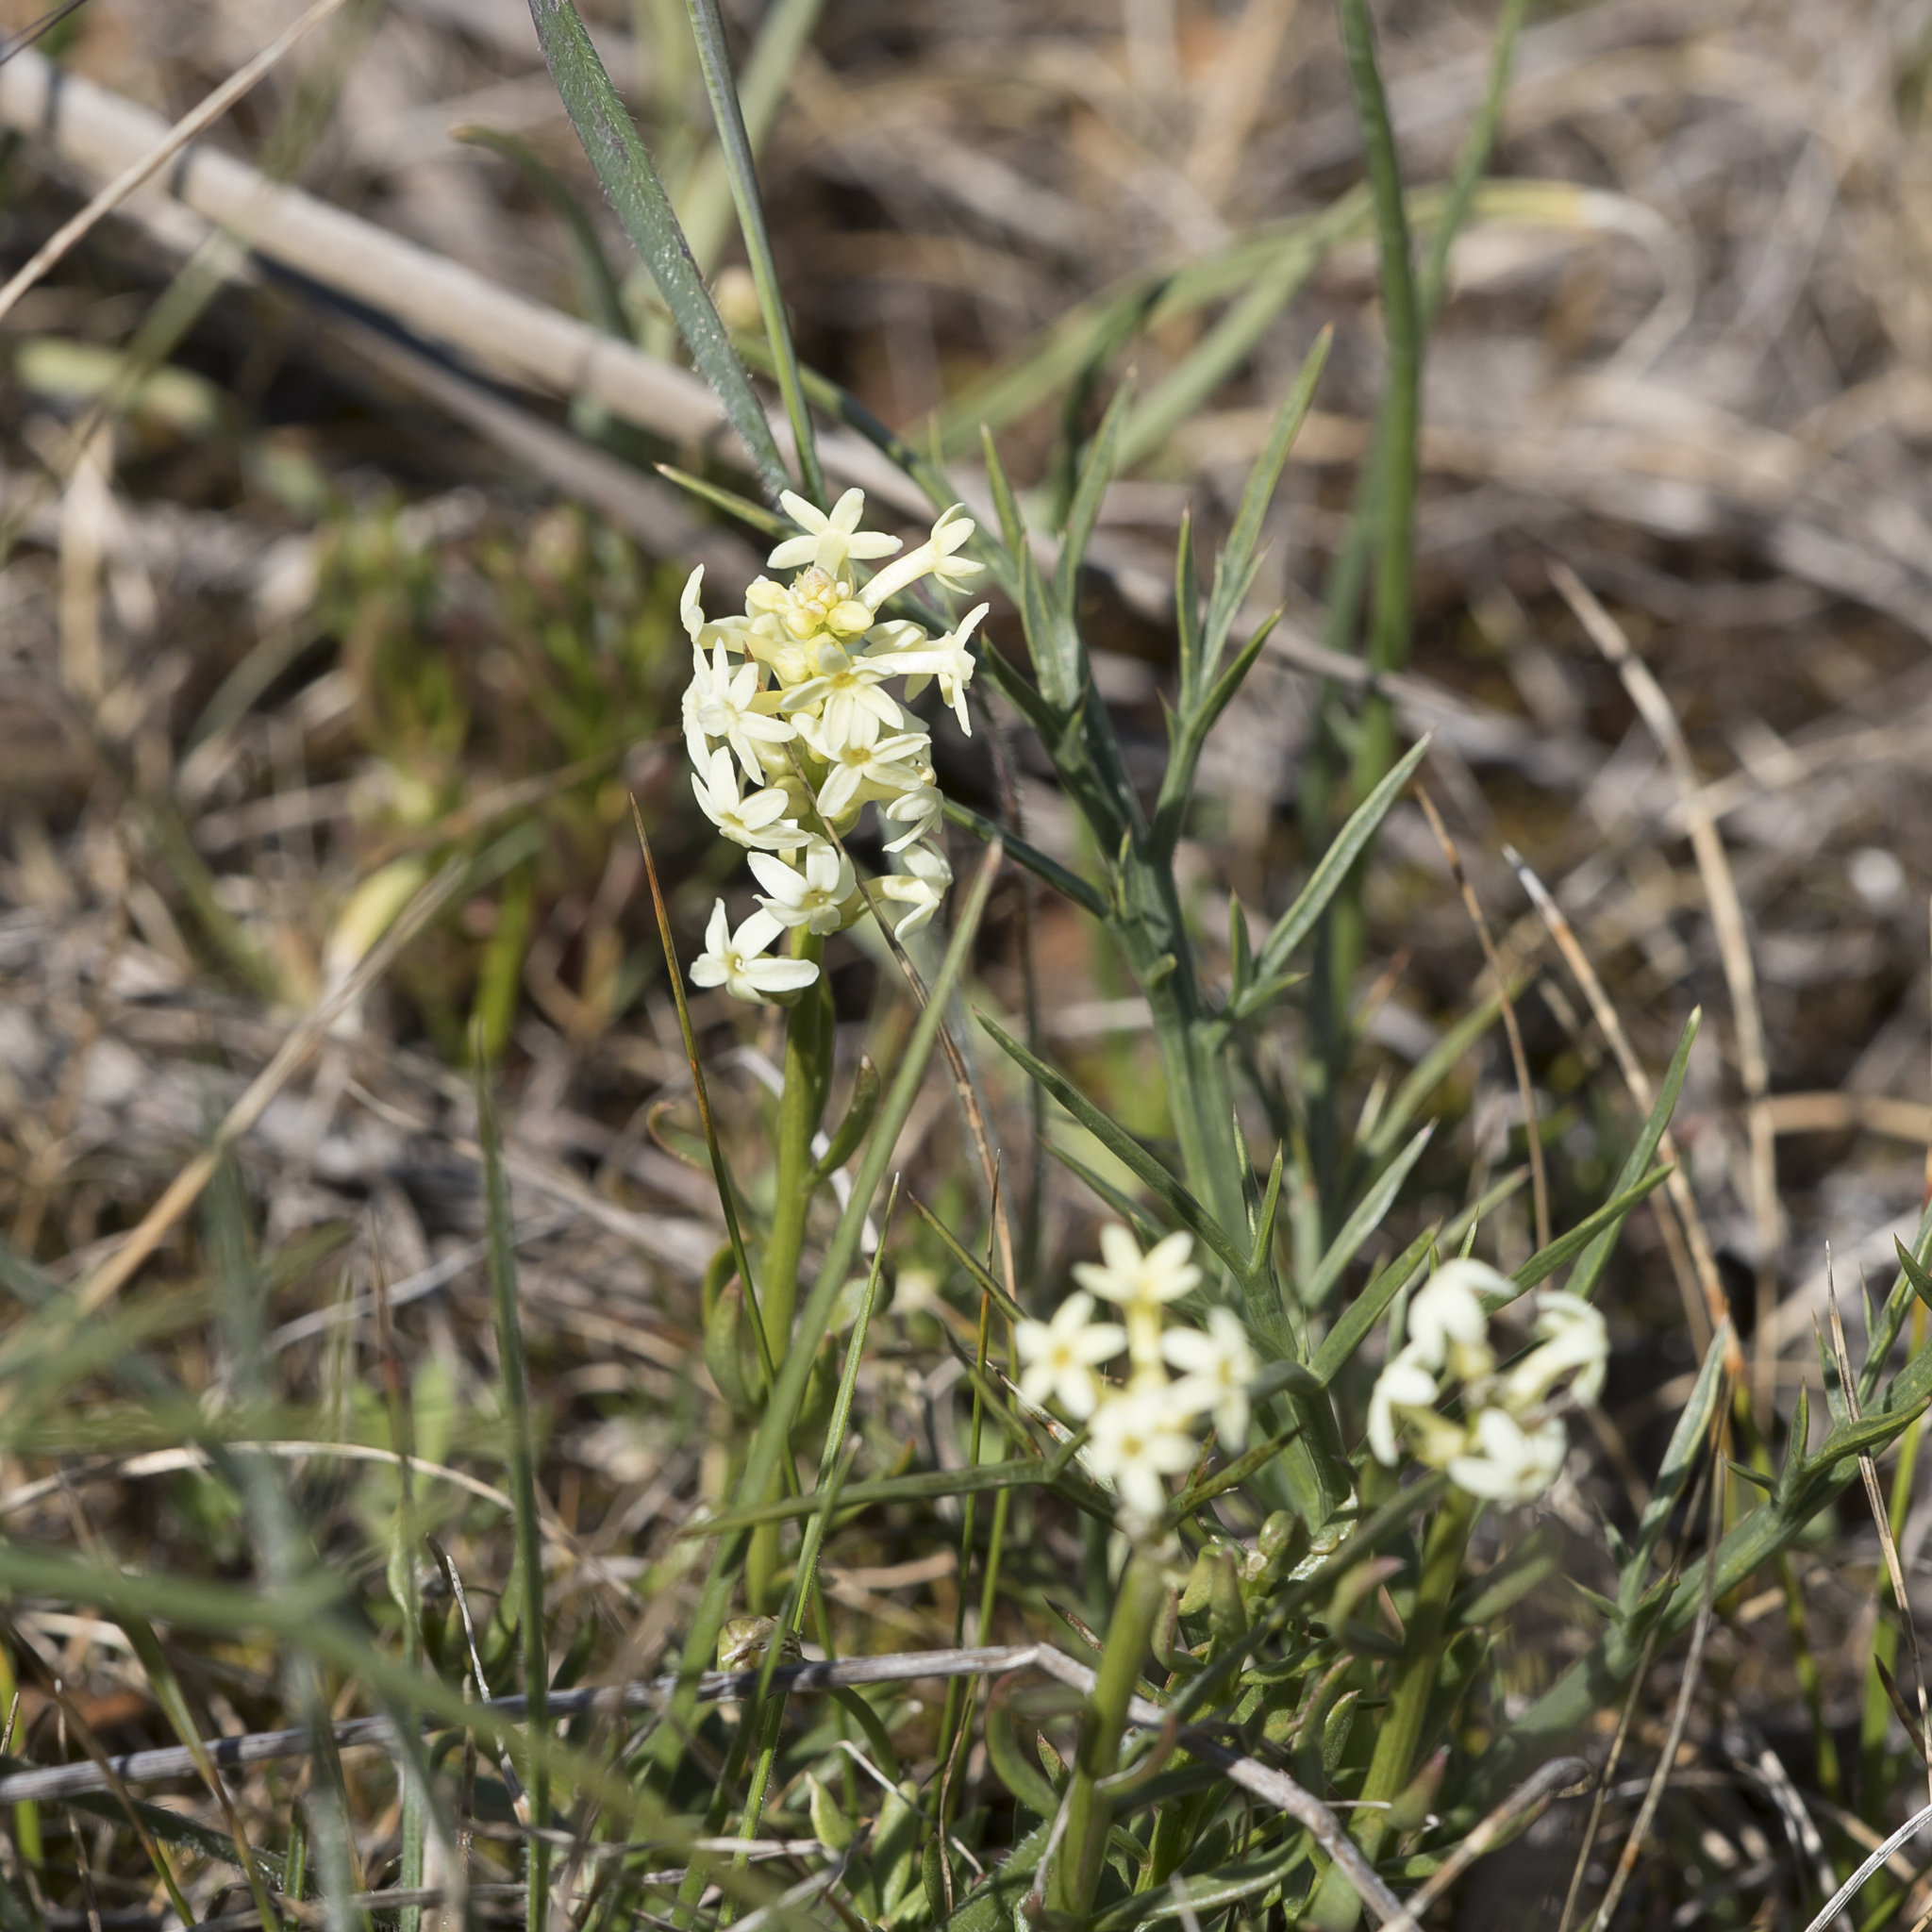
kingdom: Plantae
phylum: Tracheophyta
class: Magnoliopsida
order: Celastrales
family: Celastraceae
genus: Stackhousia
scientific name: Stackhousia monogyna
